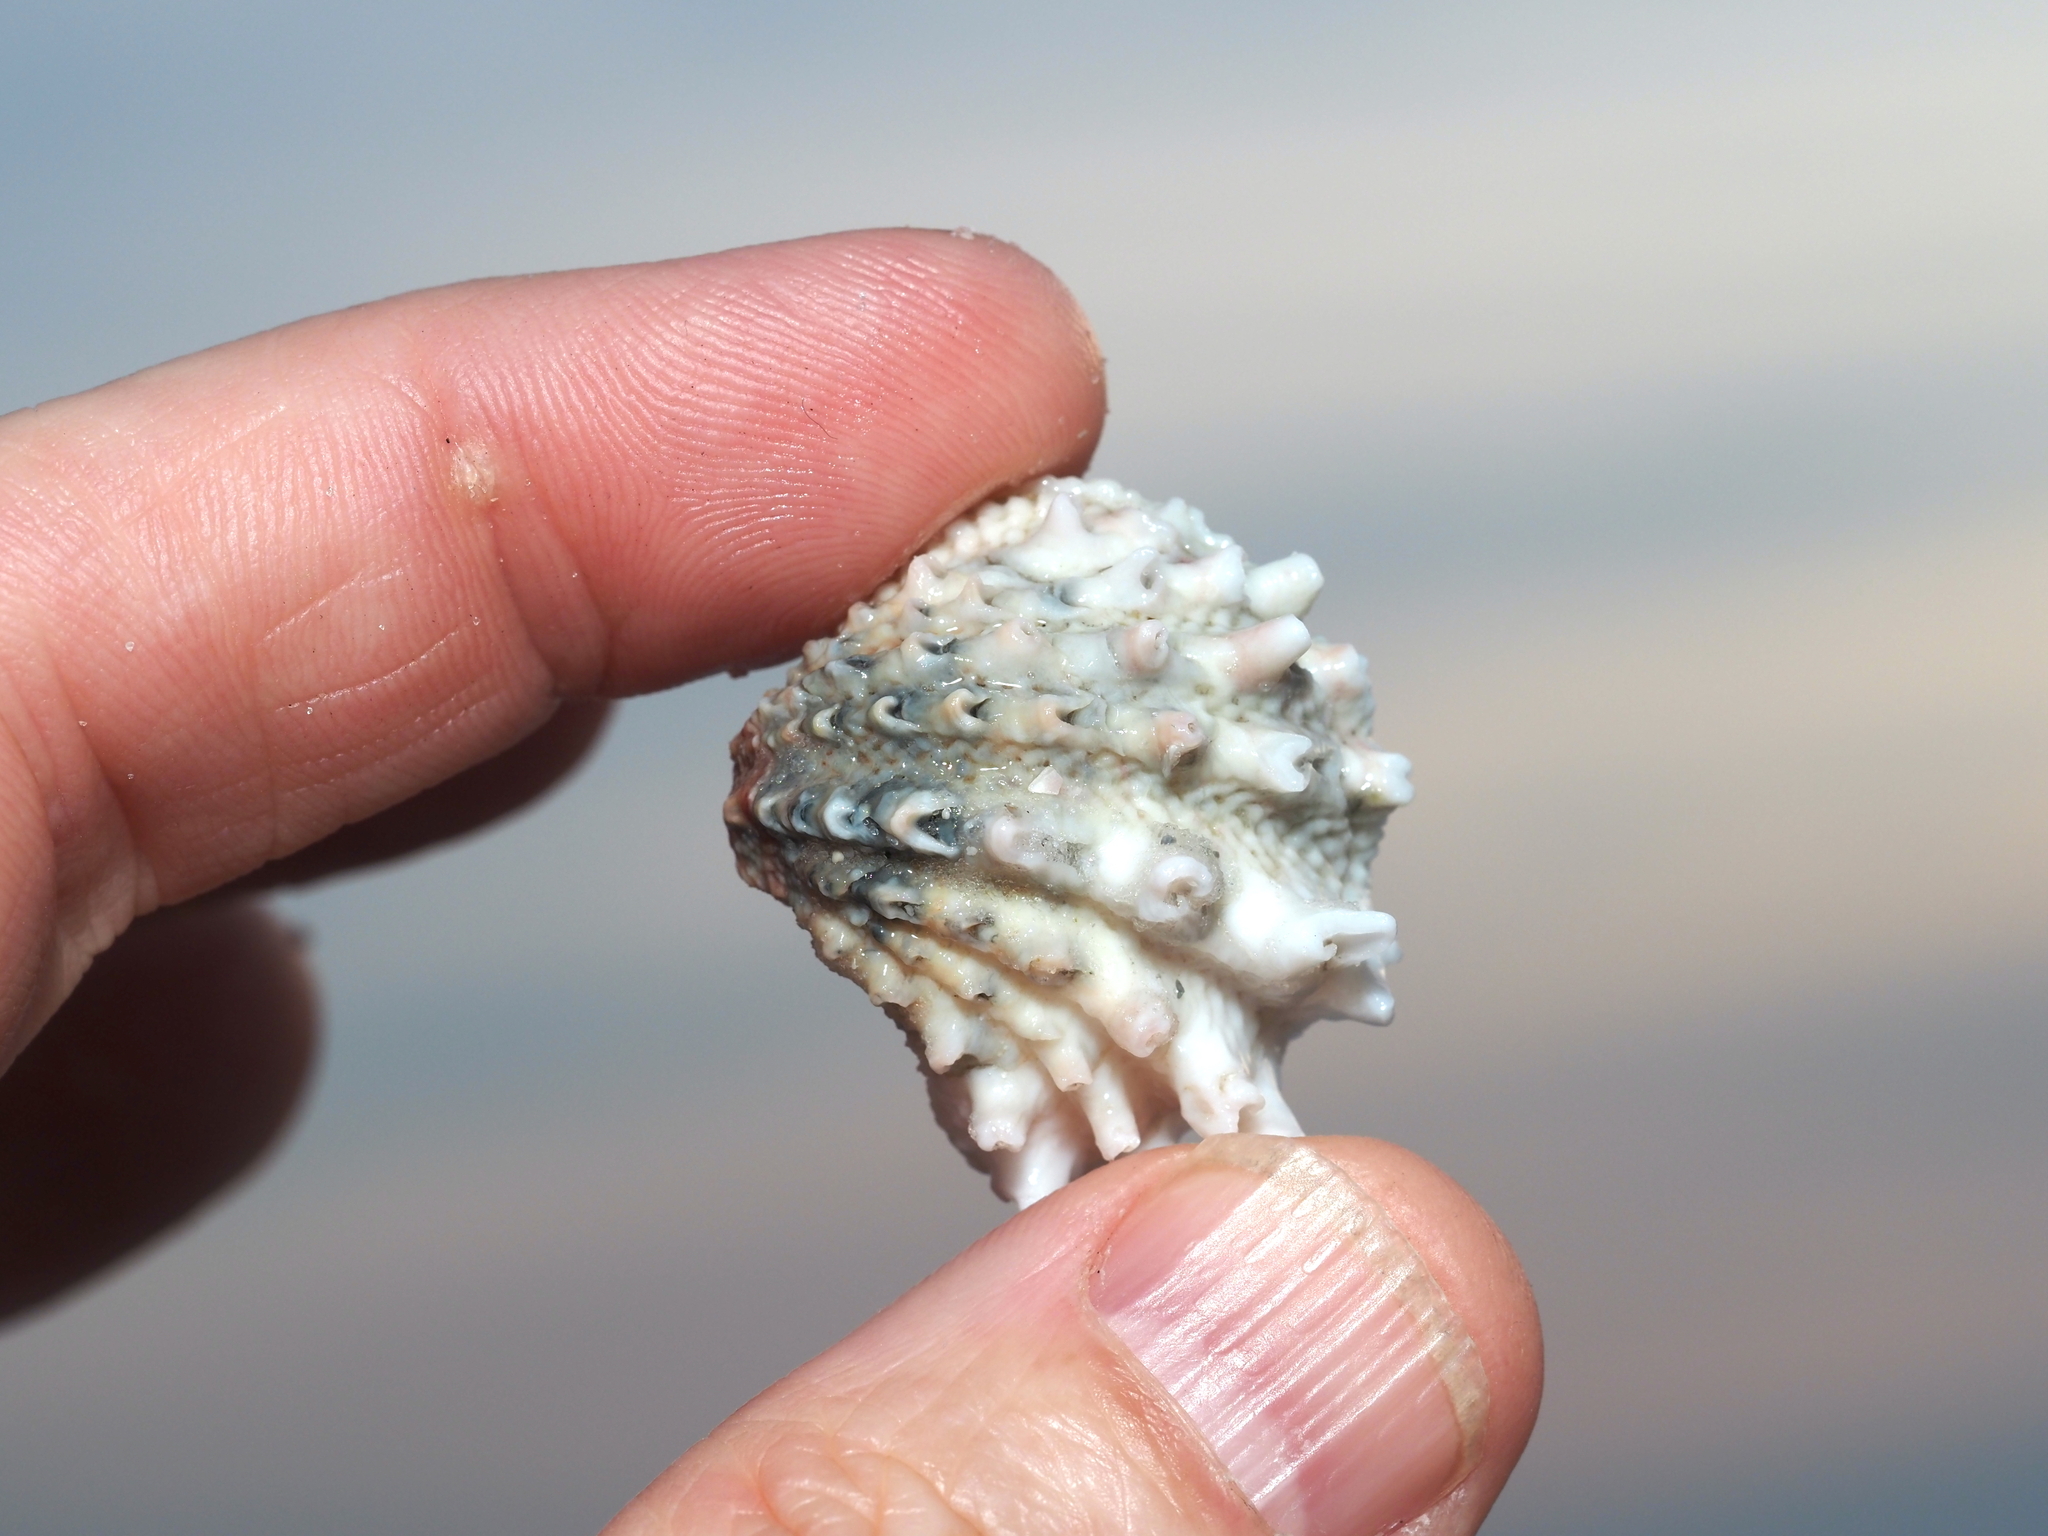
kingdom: Animalia
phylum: Mollusca
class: Bivalvia
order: Venerida
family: Chamidae
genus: Arcinella
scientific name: Arcinella cornuta
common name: Florida spiny jewel box
